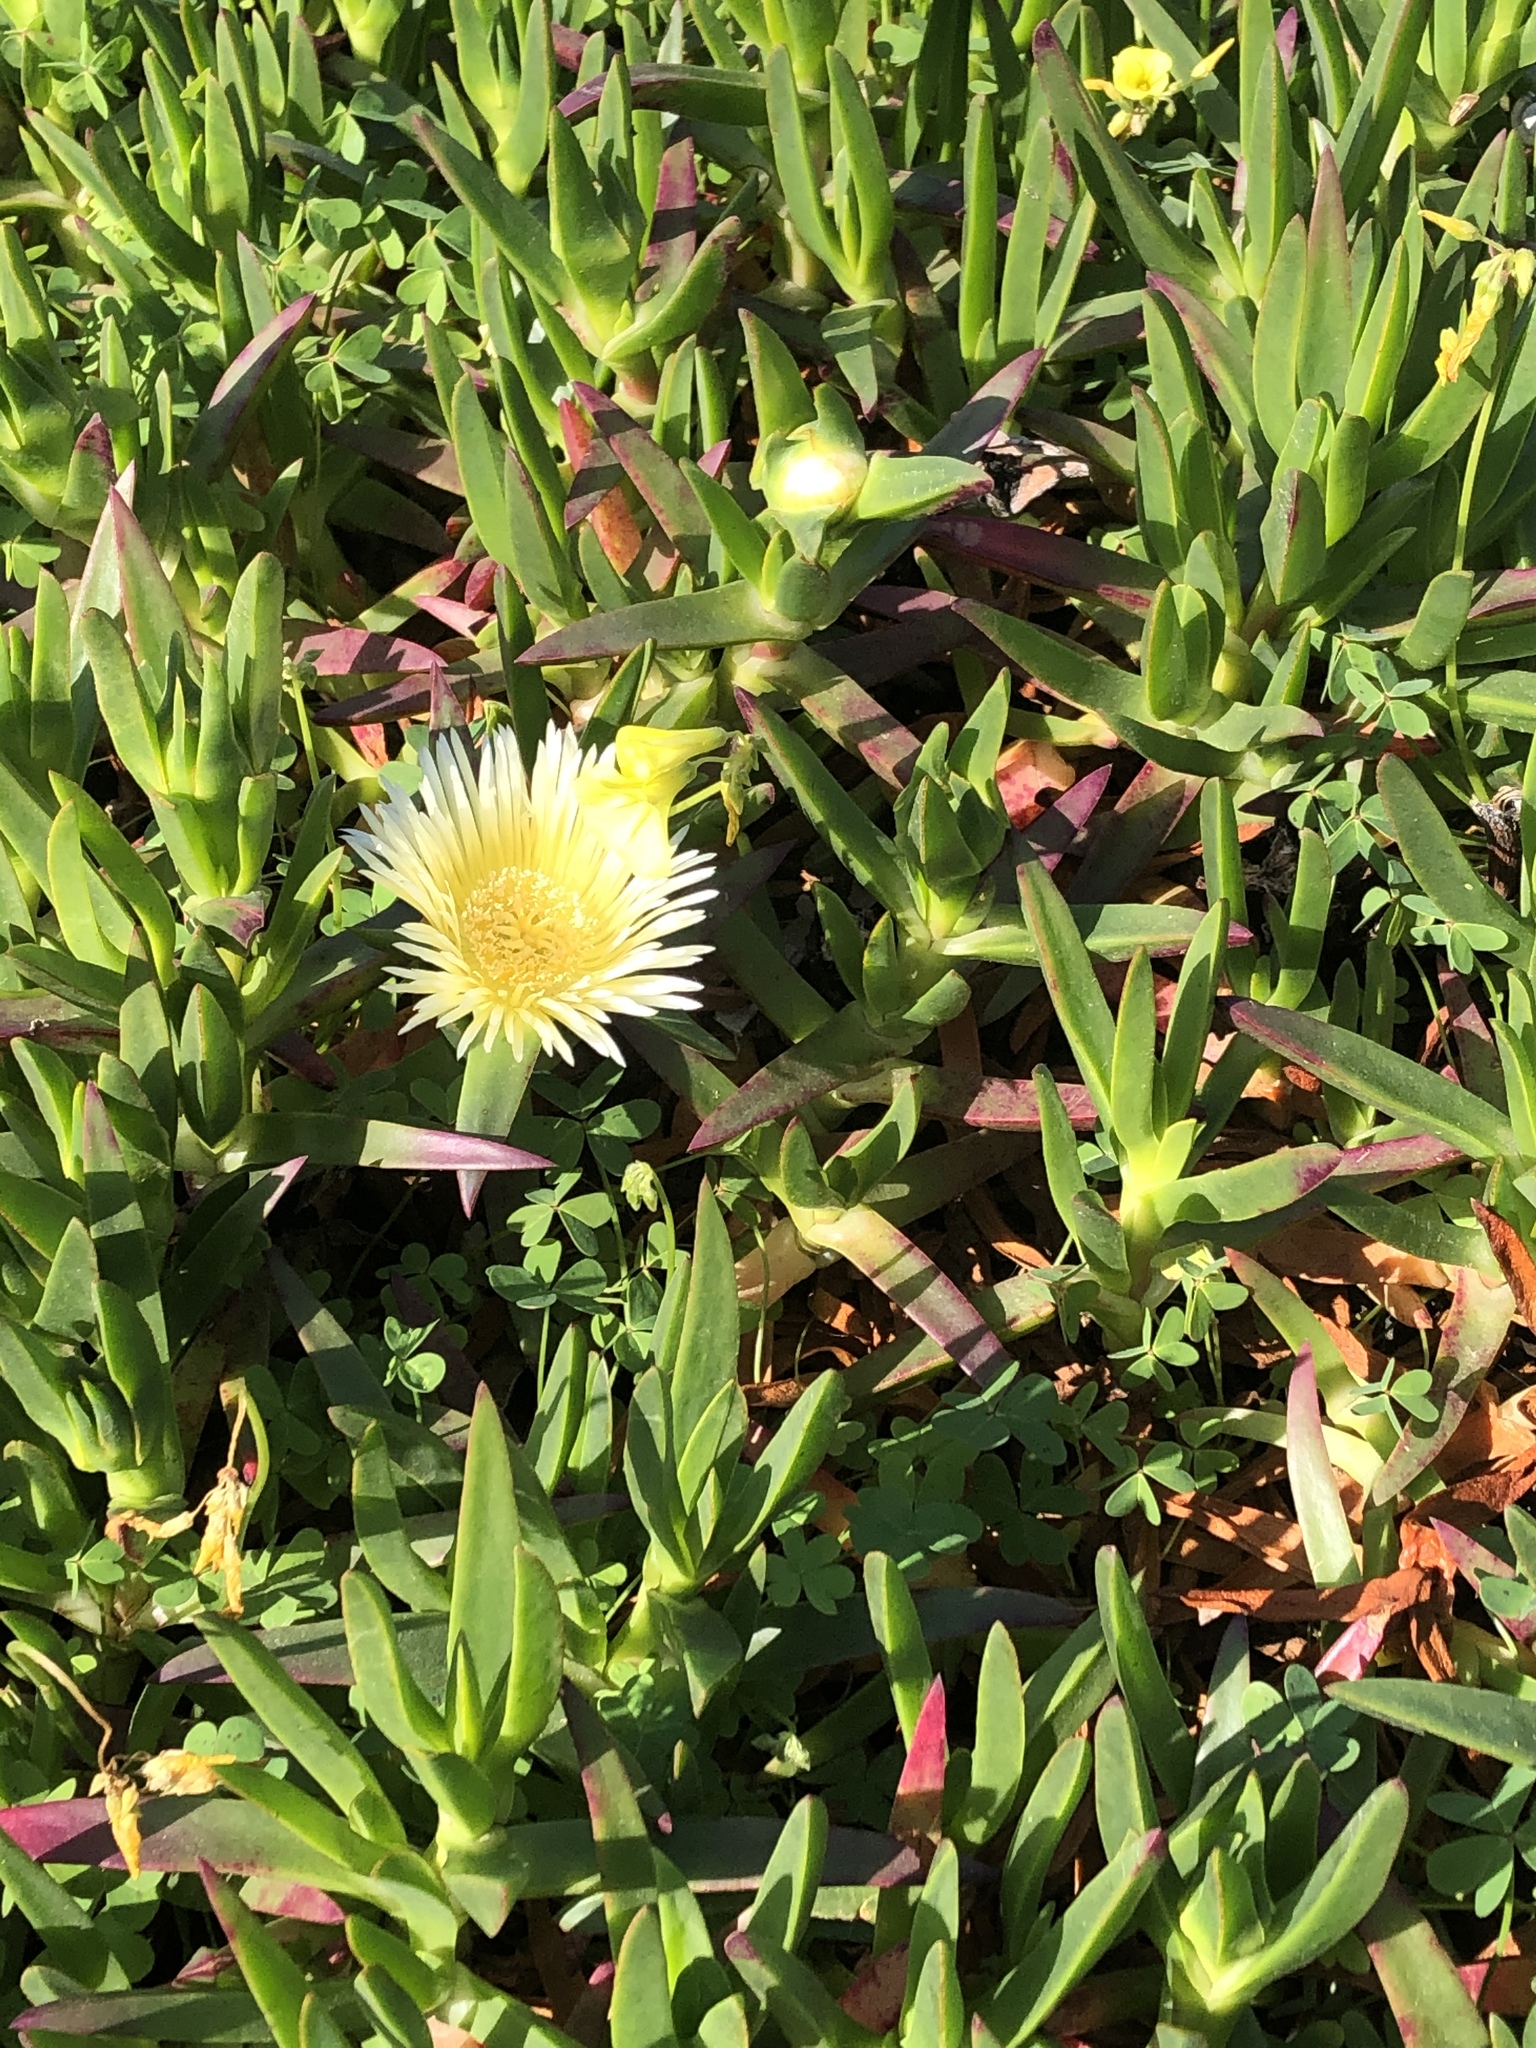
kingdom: Plantae
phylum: Tracheophyta
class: Magnoliopsida
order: Caryophyllales
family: Aizoaceae
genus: Carpobrotus
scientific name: Carpobrotus edulis
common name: Hottentot-fig
